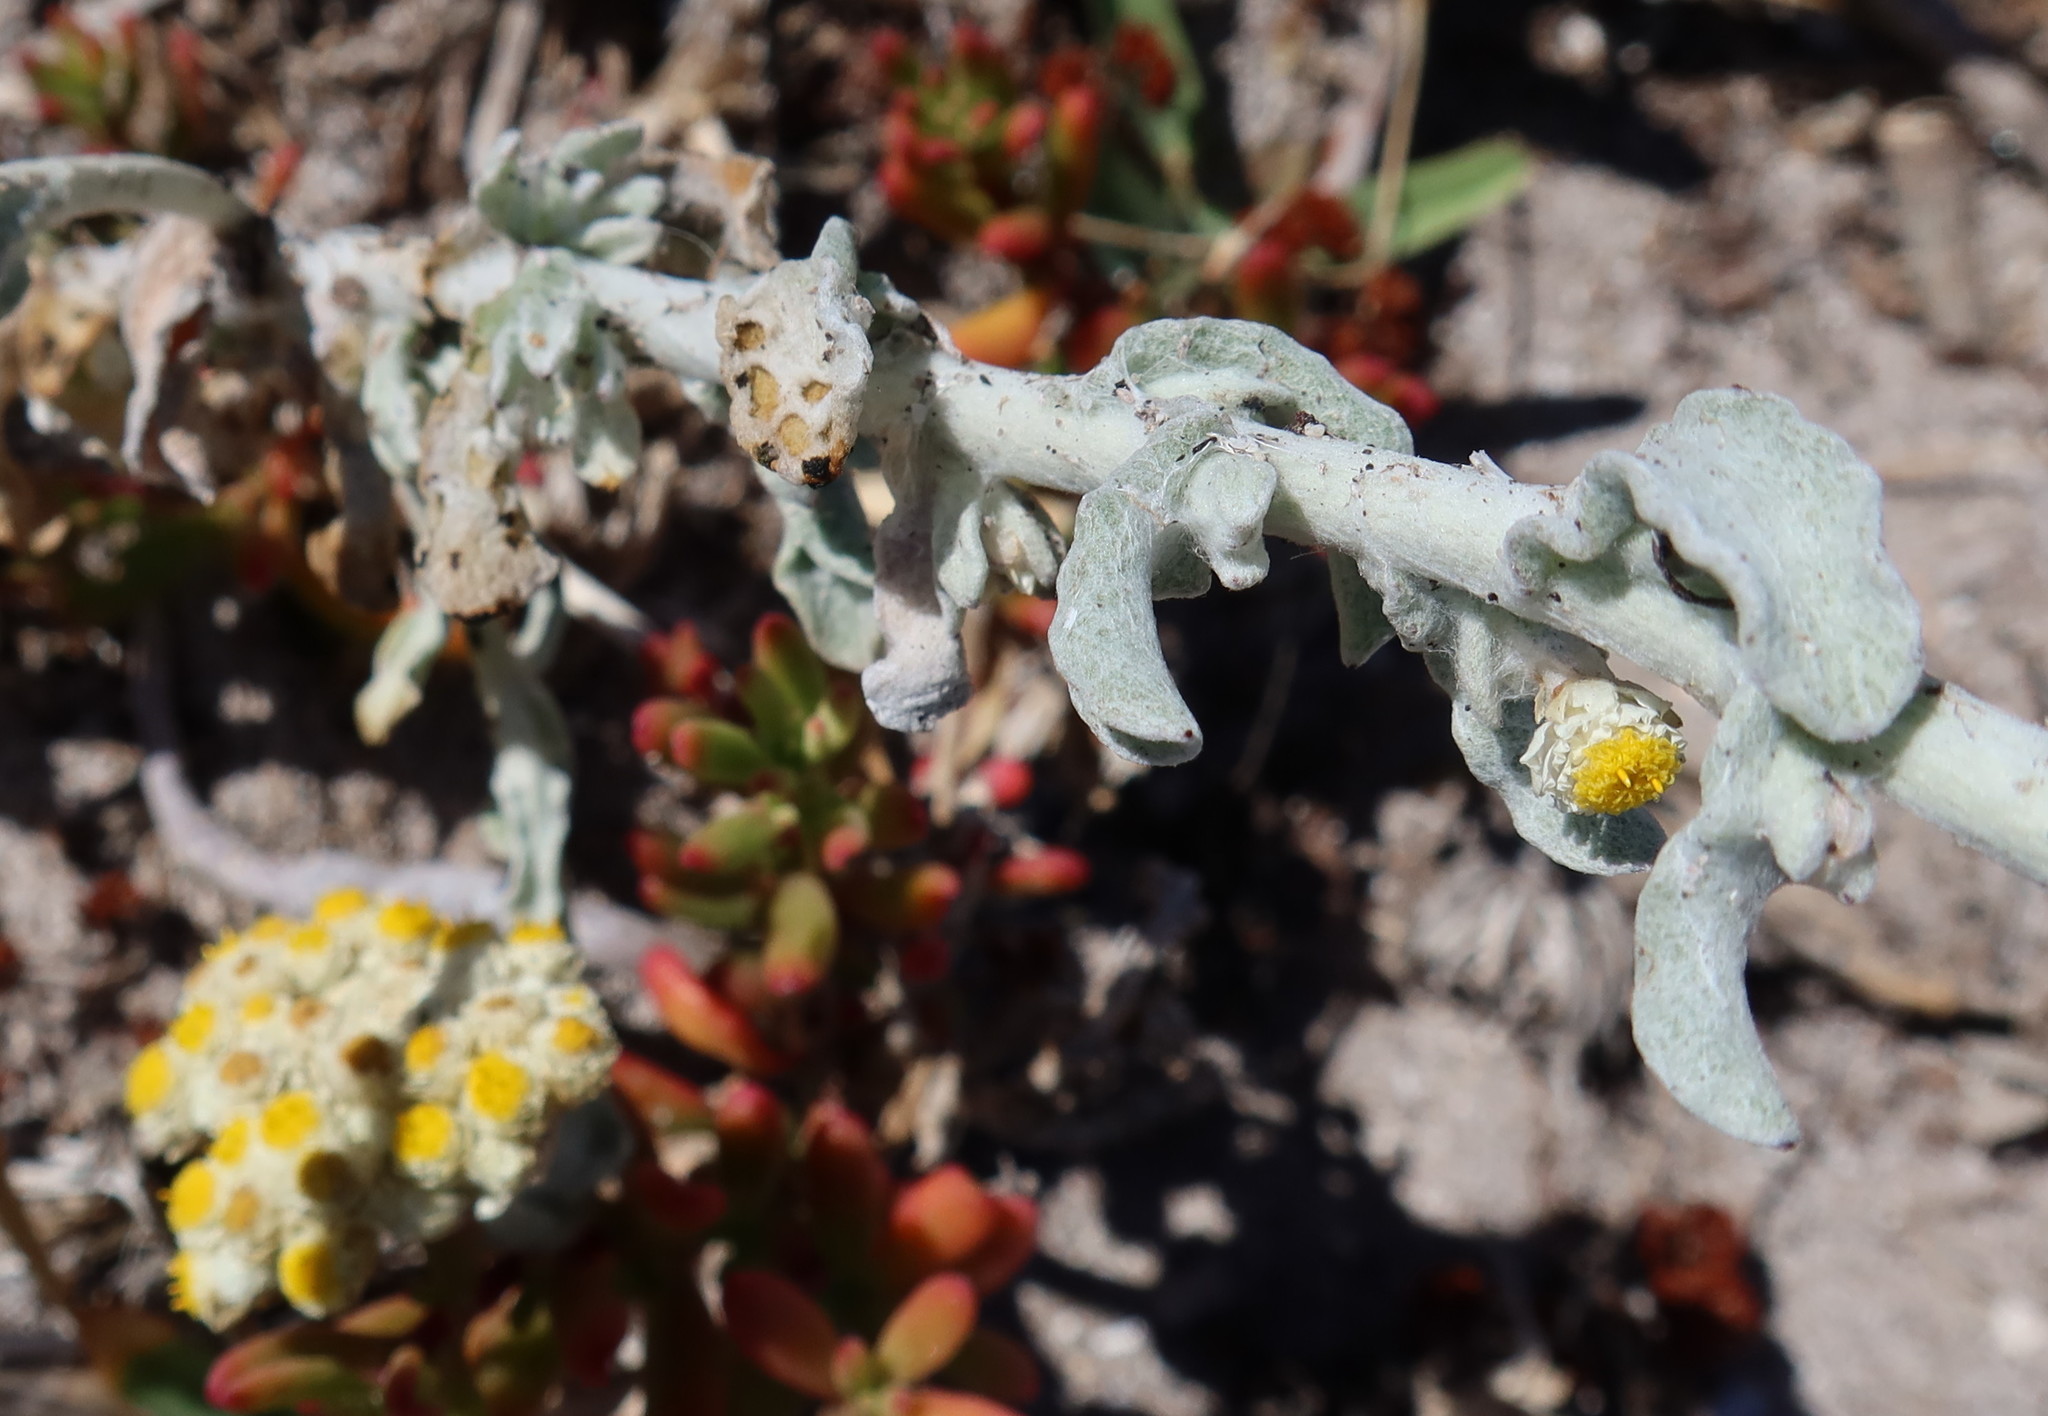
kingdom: Plantae
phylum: Tracheophyta
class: Magnoliopsida
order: Asterales
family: Asteraceae
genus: Helichrysum
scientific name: Helichrysum crispum
